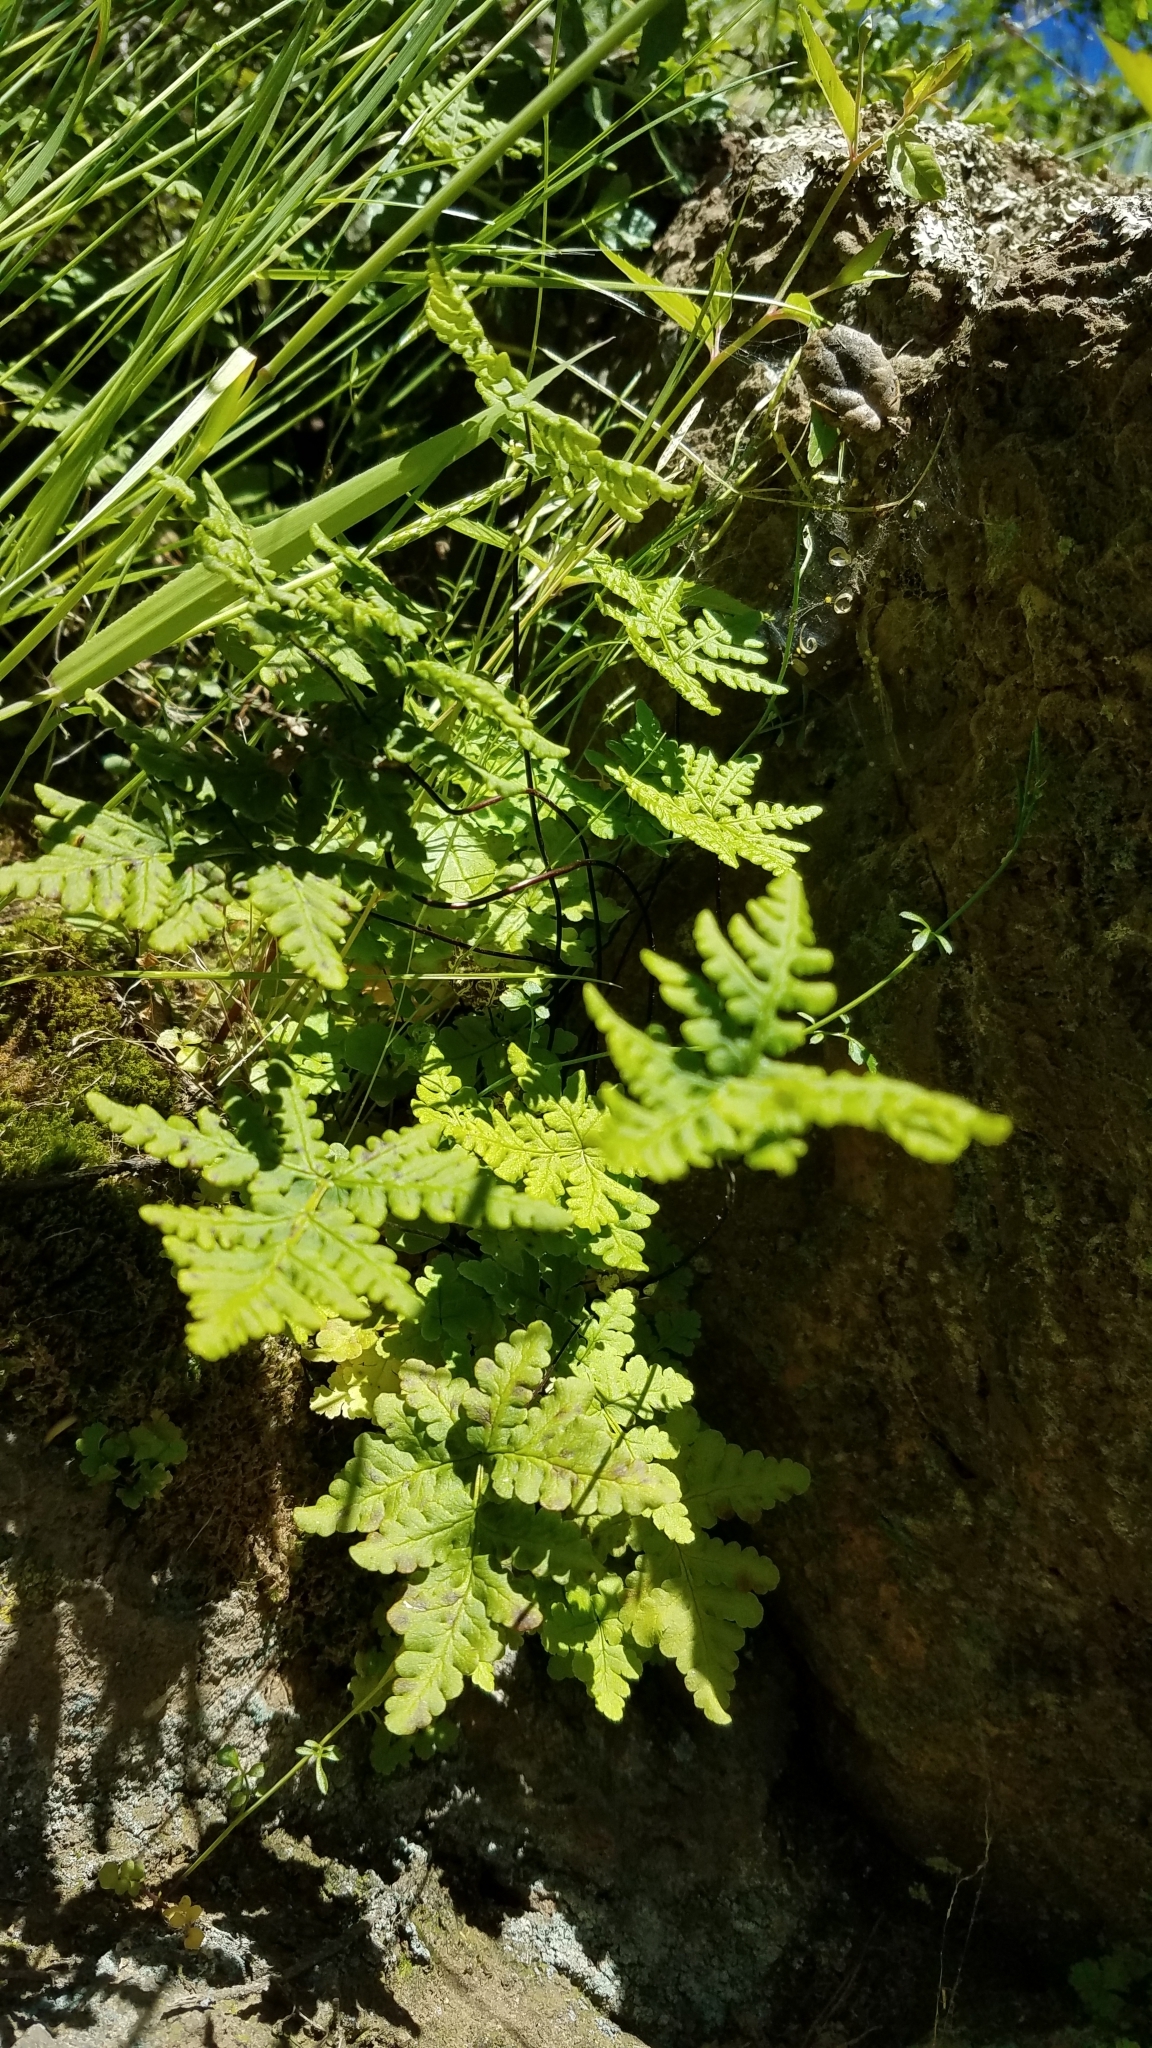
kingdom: Plantae
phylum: Tracheophyta
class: Polypodiopsida
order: Polypodiales
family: Pteridaceae
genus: Pentagramma
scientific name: Pentagramma triangularis
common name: Gold fern
